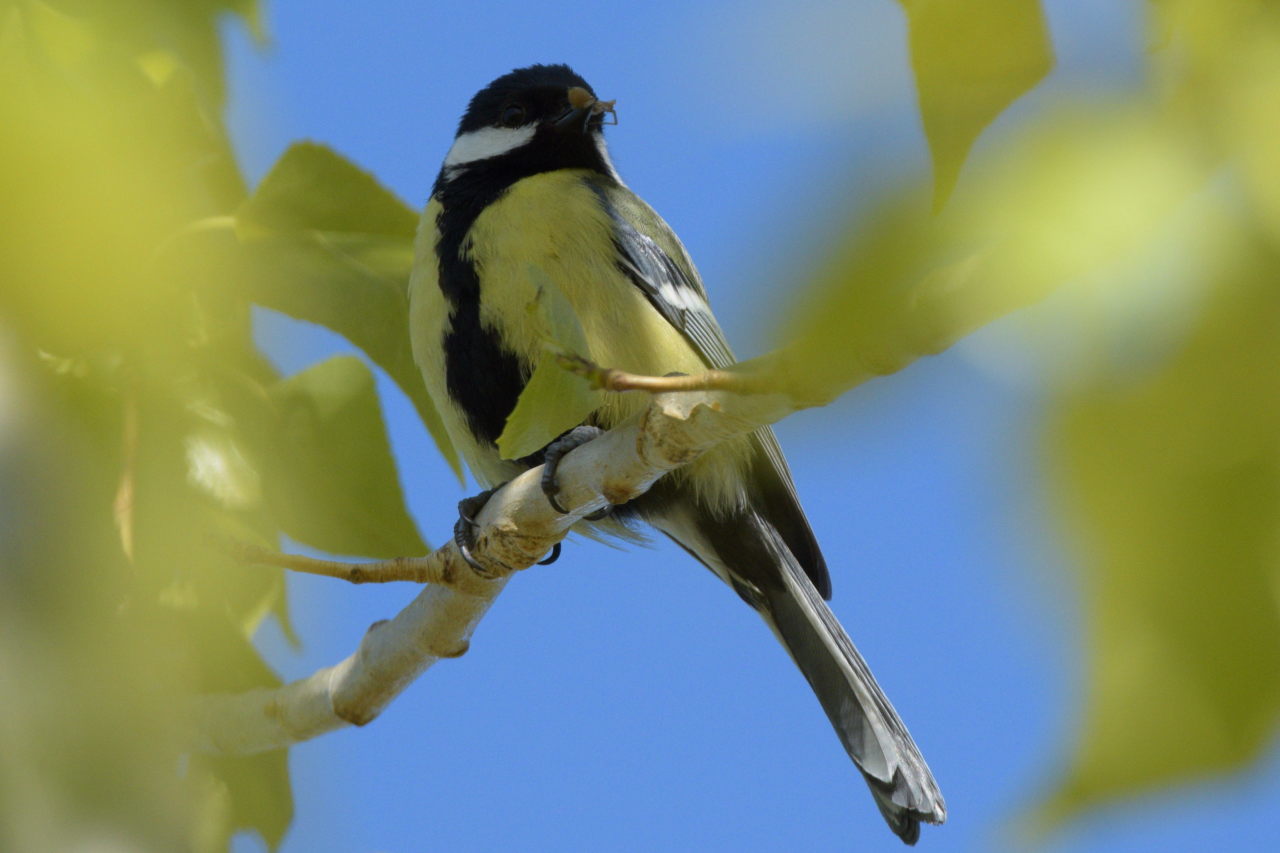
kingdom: Animalia
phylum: Chordata
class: Aves
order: Passeriformes
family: Paridae
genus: Parus
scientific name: Parus major
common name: Great tit
